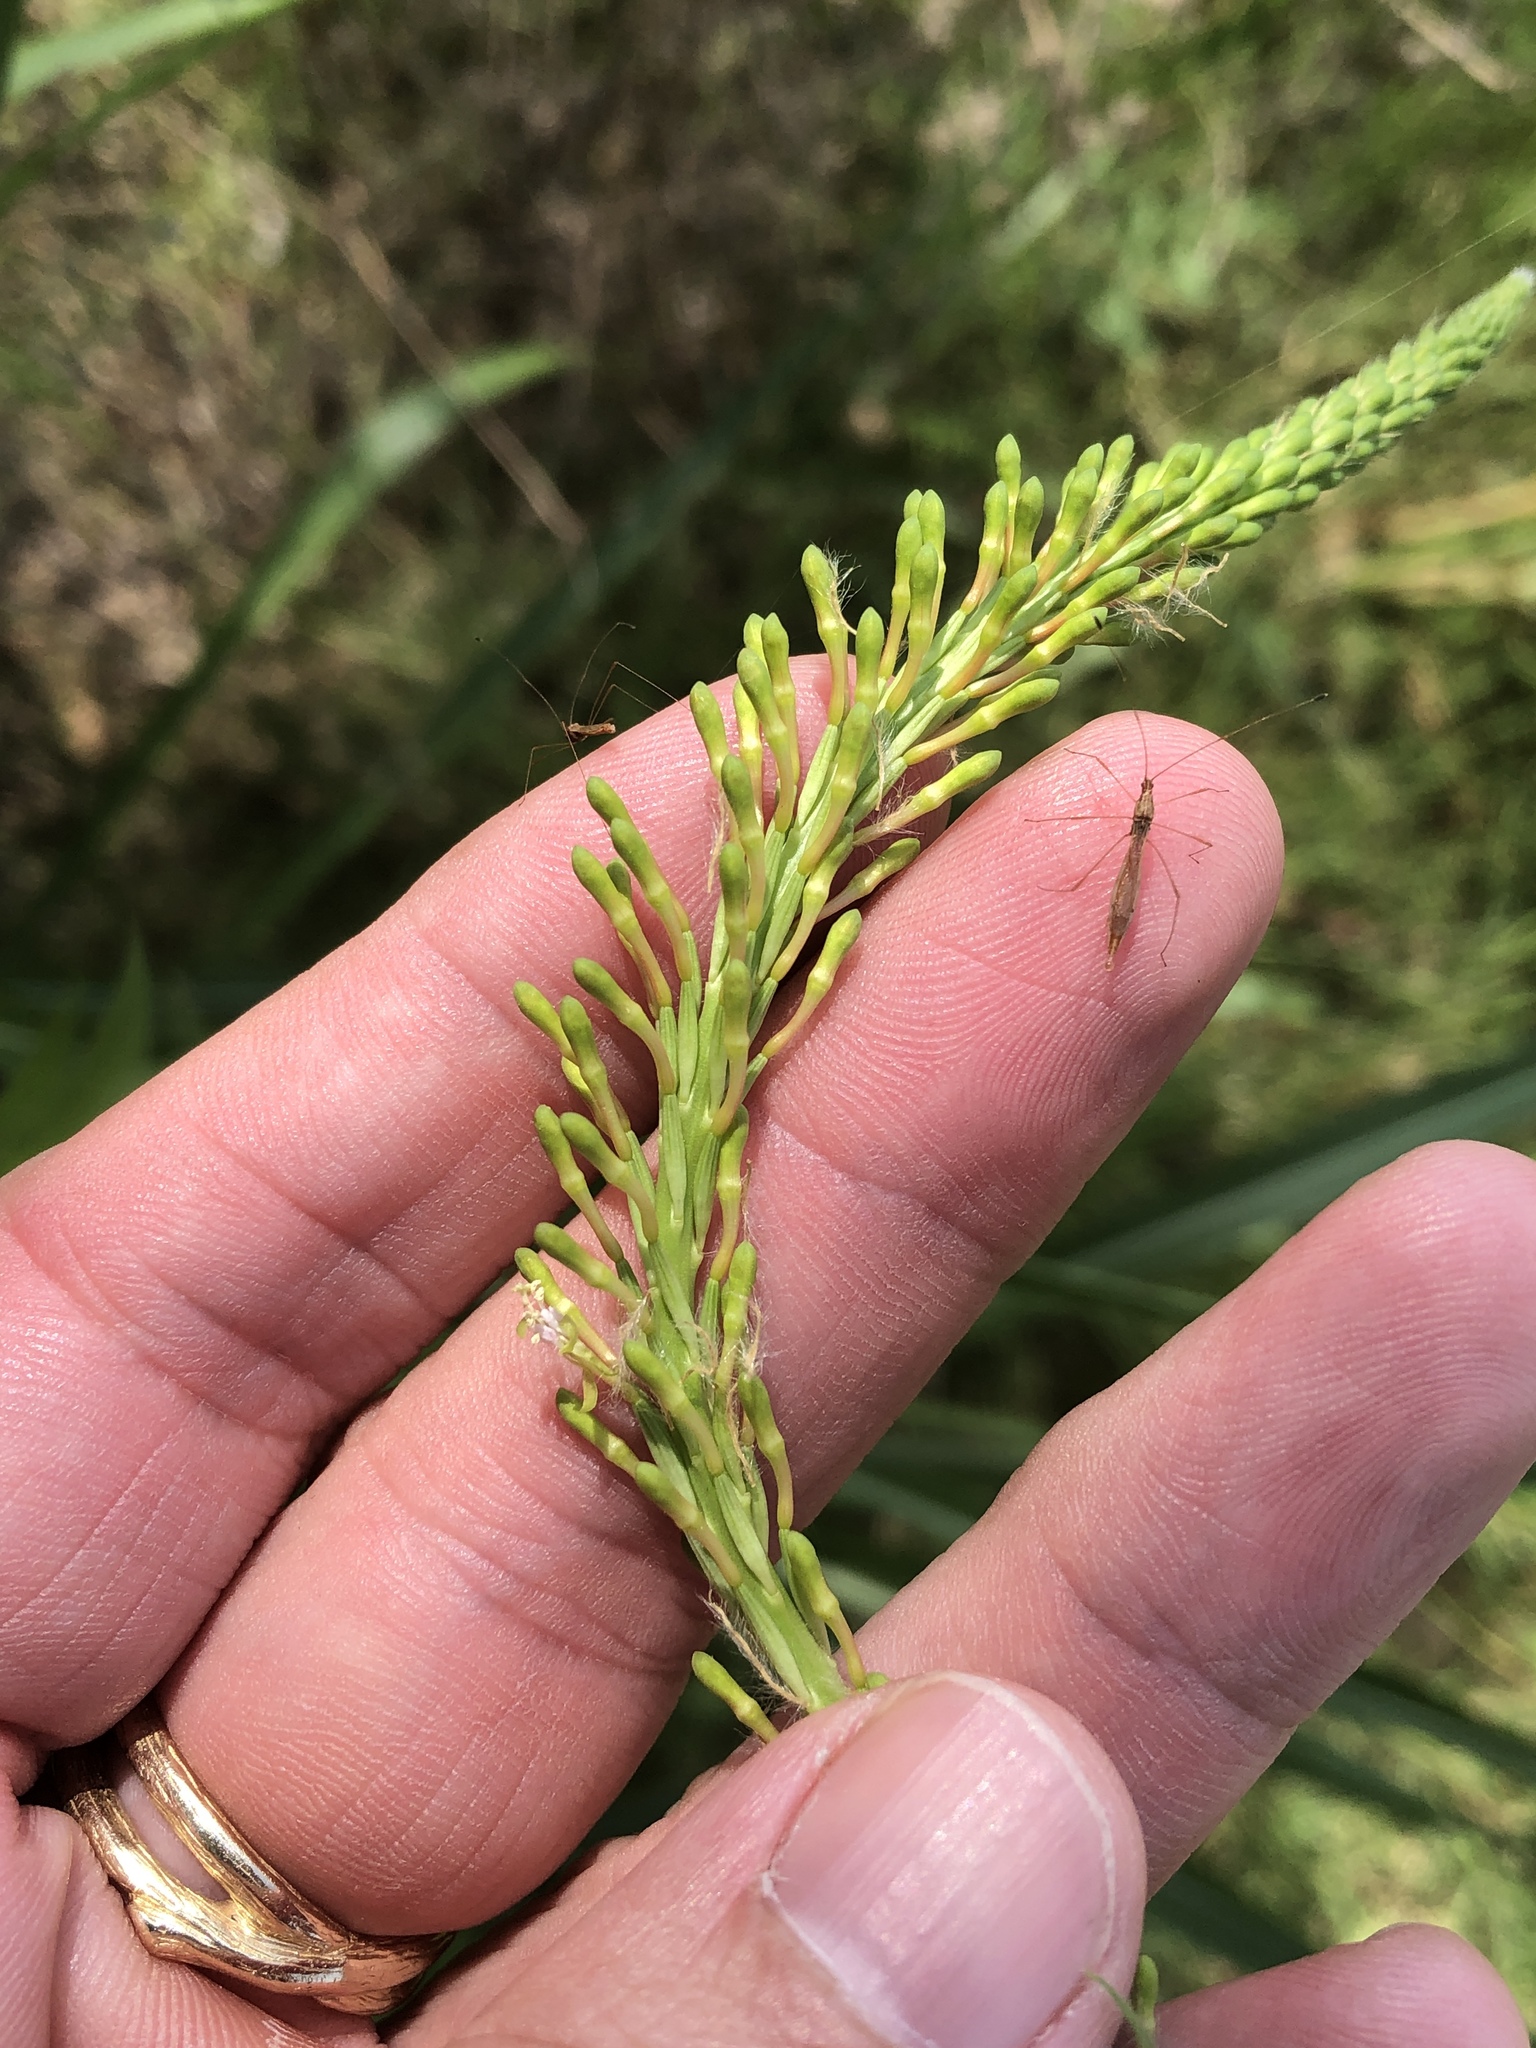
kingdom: Plantae
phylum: Tracheophyta
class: Magnoliopsida
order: Myrtales
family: Onagraceae
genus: Oenothera
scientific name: Oenothera curtiflora
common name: Velvetweed
